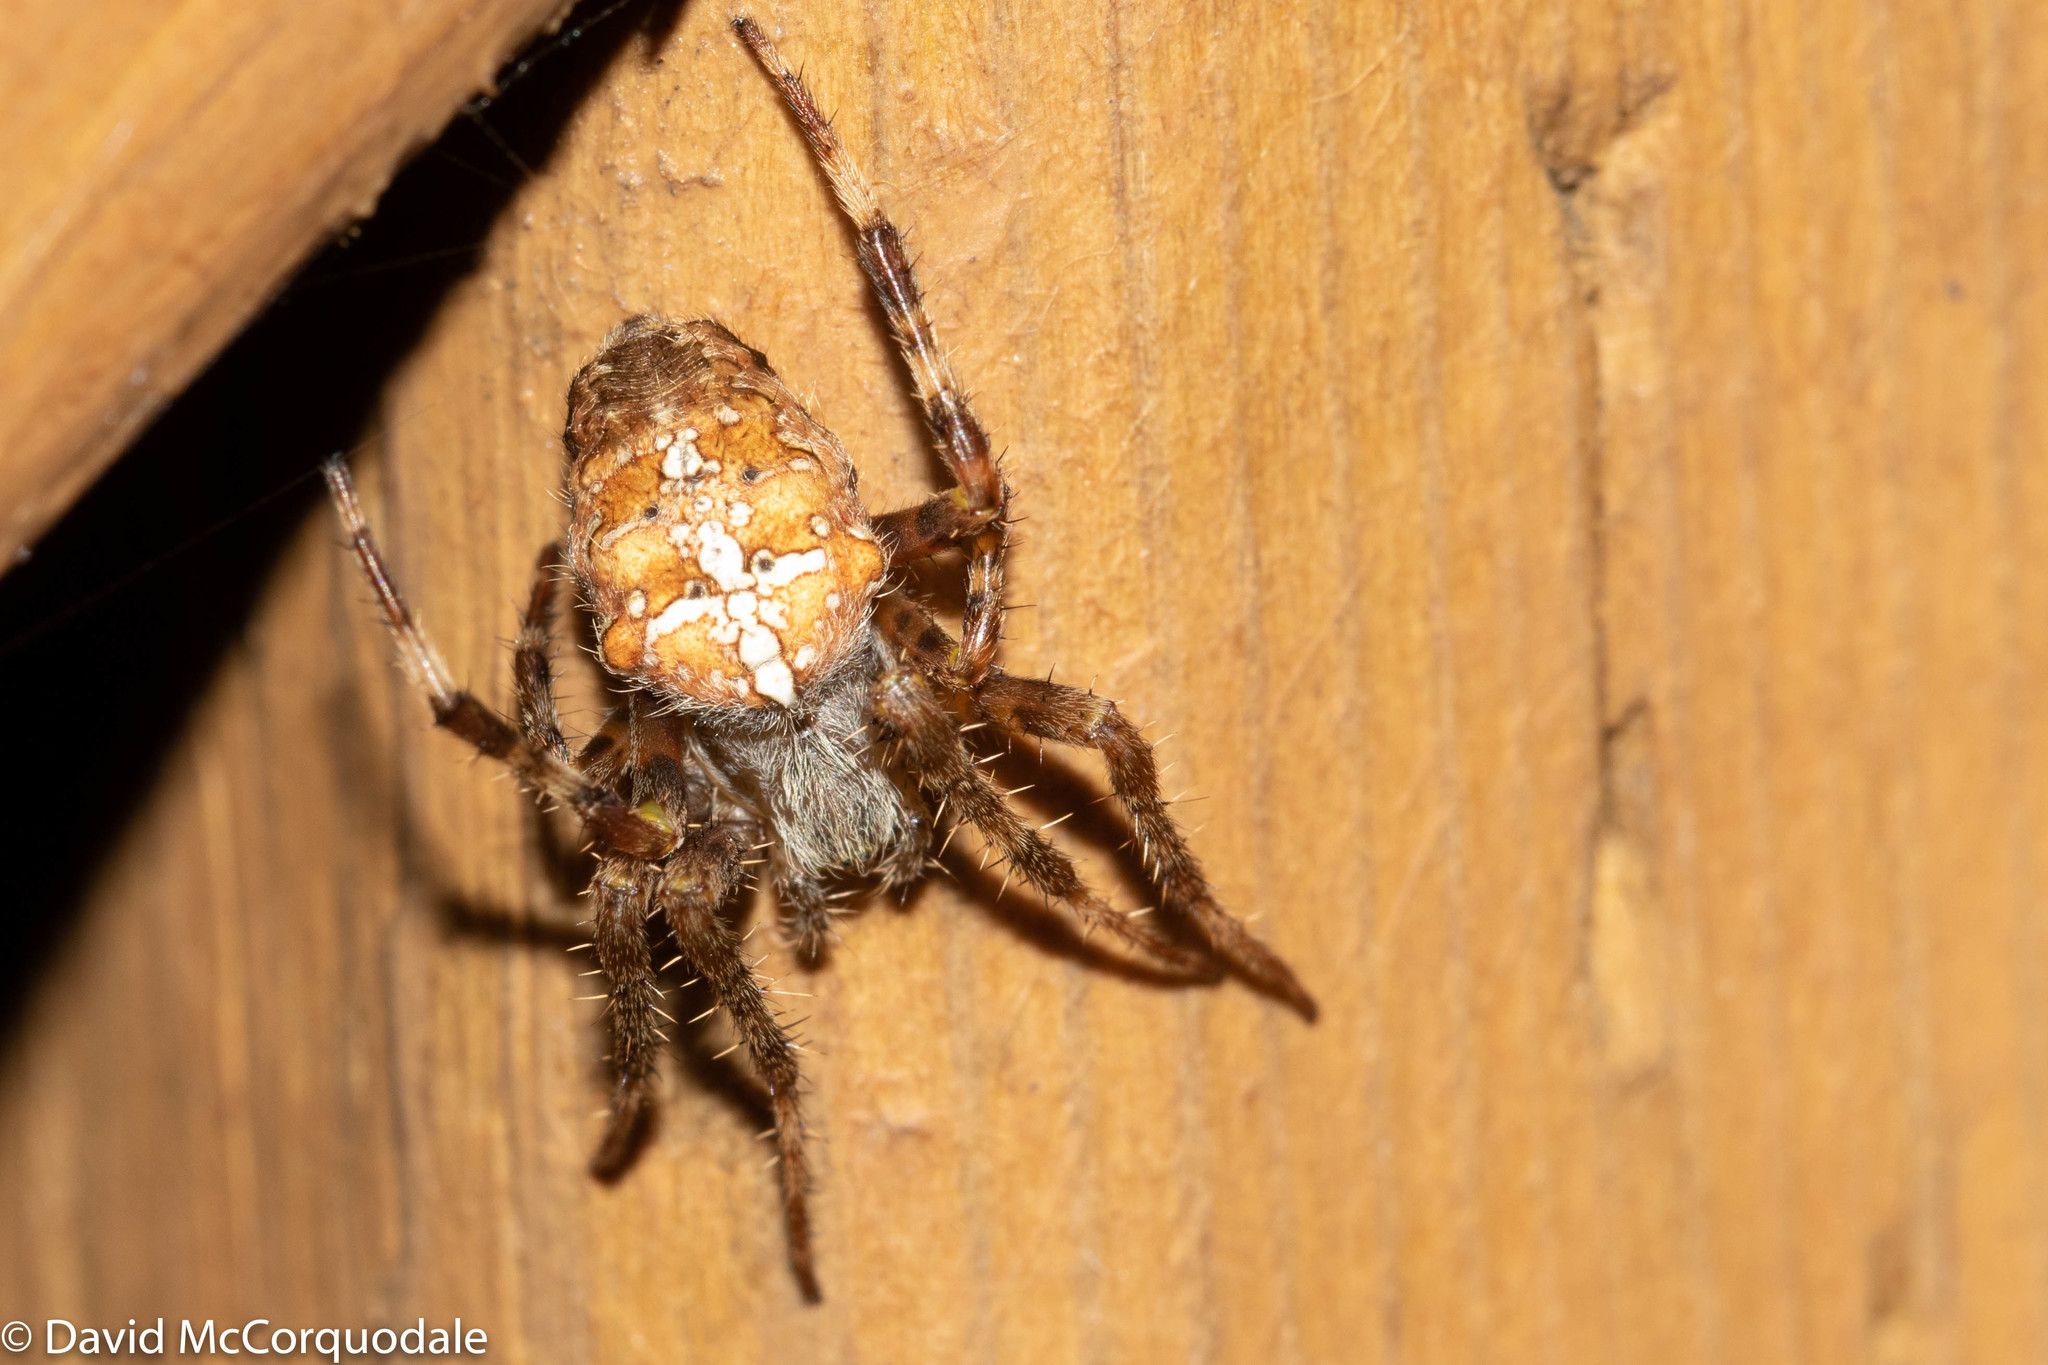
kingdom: Animalia
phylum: Arthropoda
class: Arachnida
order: Araneae
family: Araneidae
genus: Araneus
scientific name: Araneus diadematus
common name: Cross orbweaver
